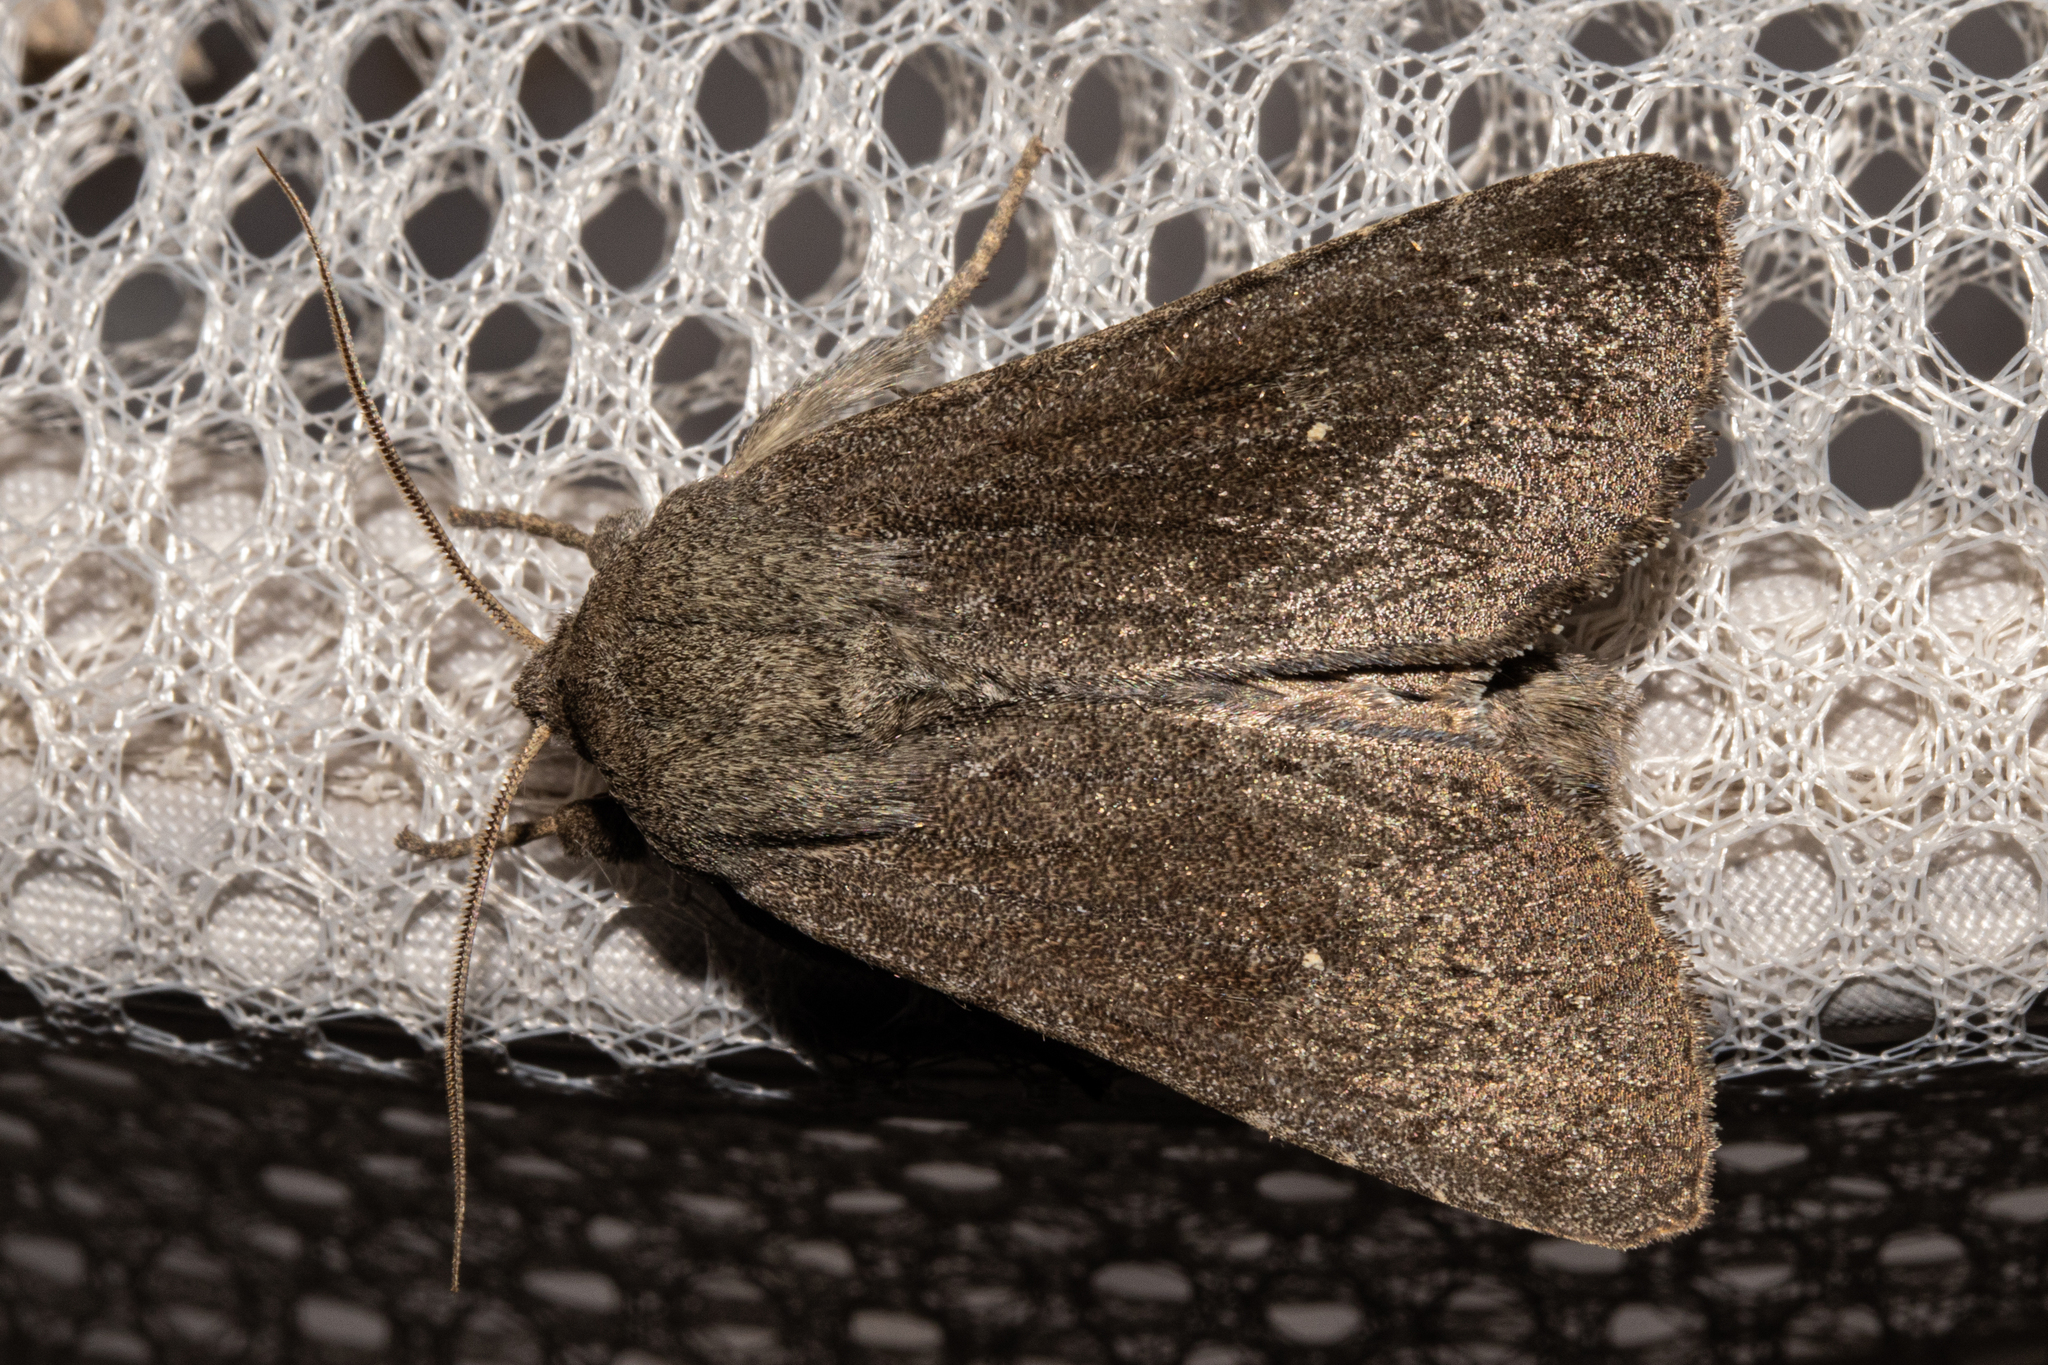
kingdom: Animalia
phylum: Arthropoda
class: Insecta
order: Lepidoptera
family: Noctuidae
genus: Ichneutica
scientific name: Ichneutica nullifera
